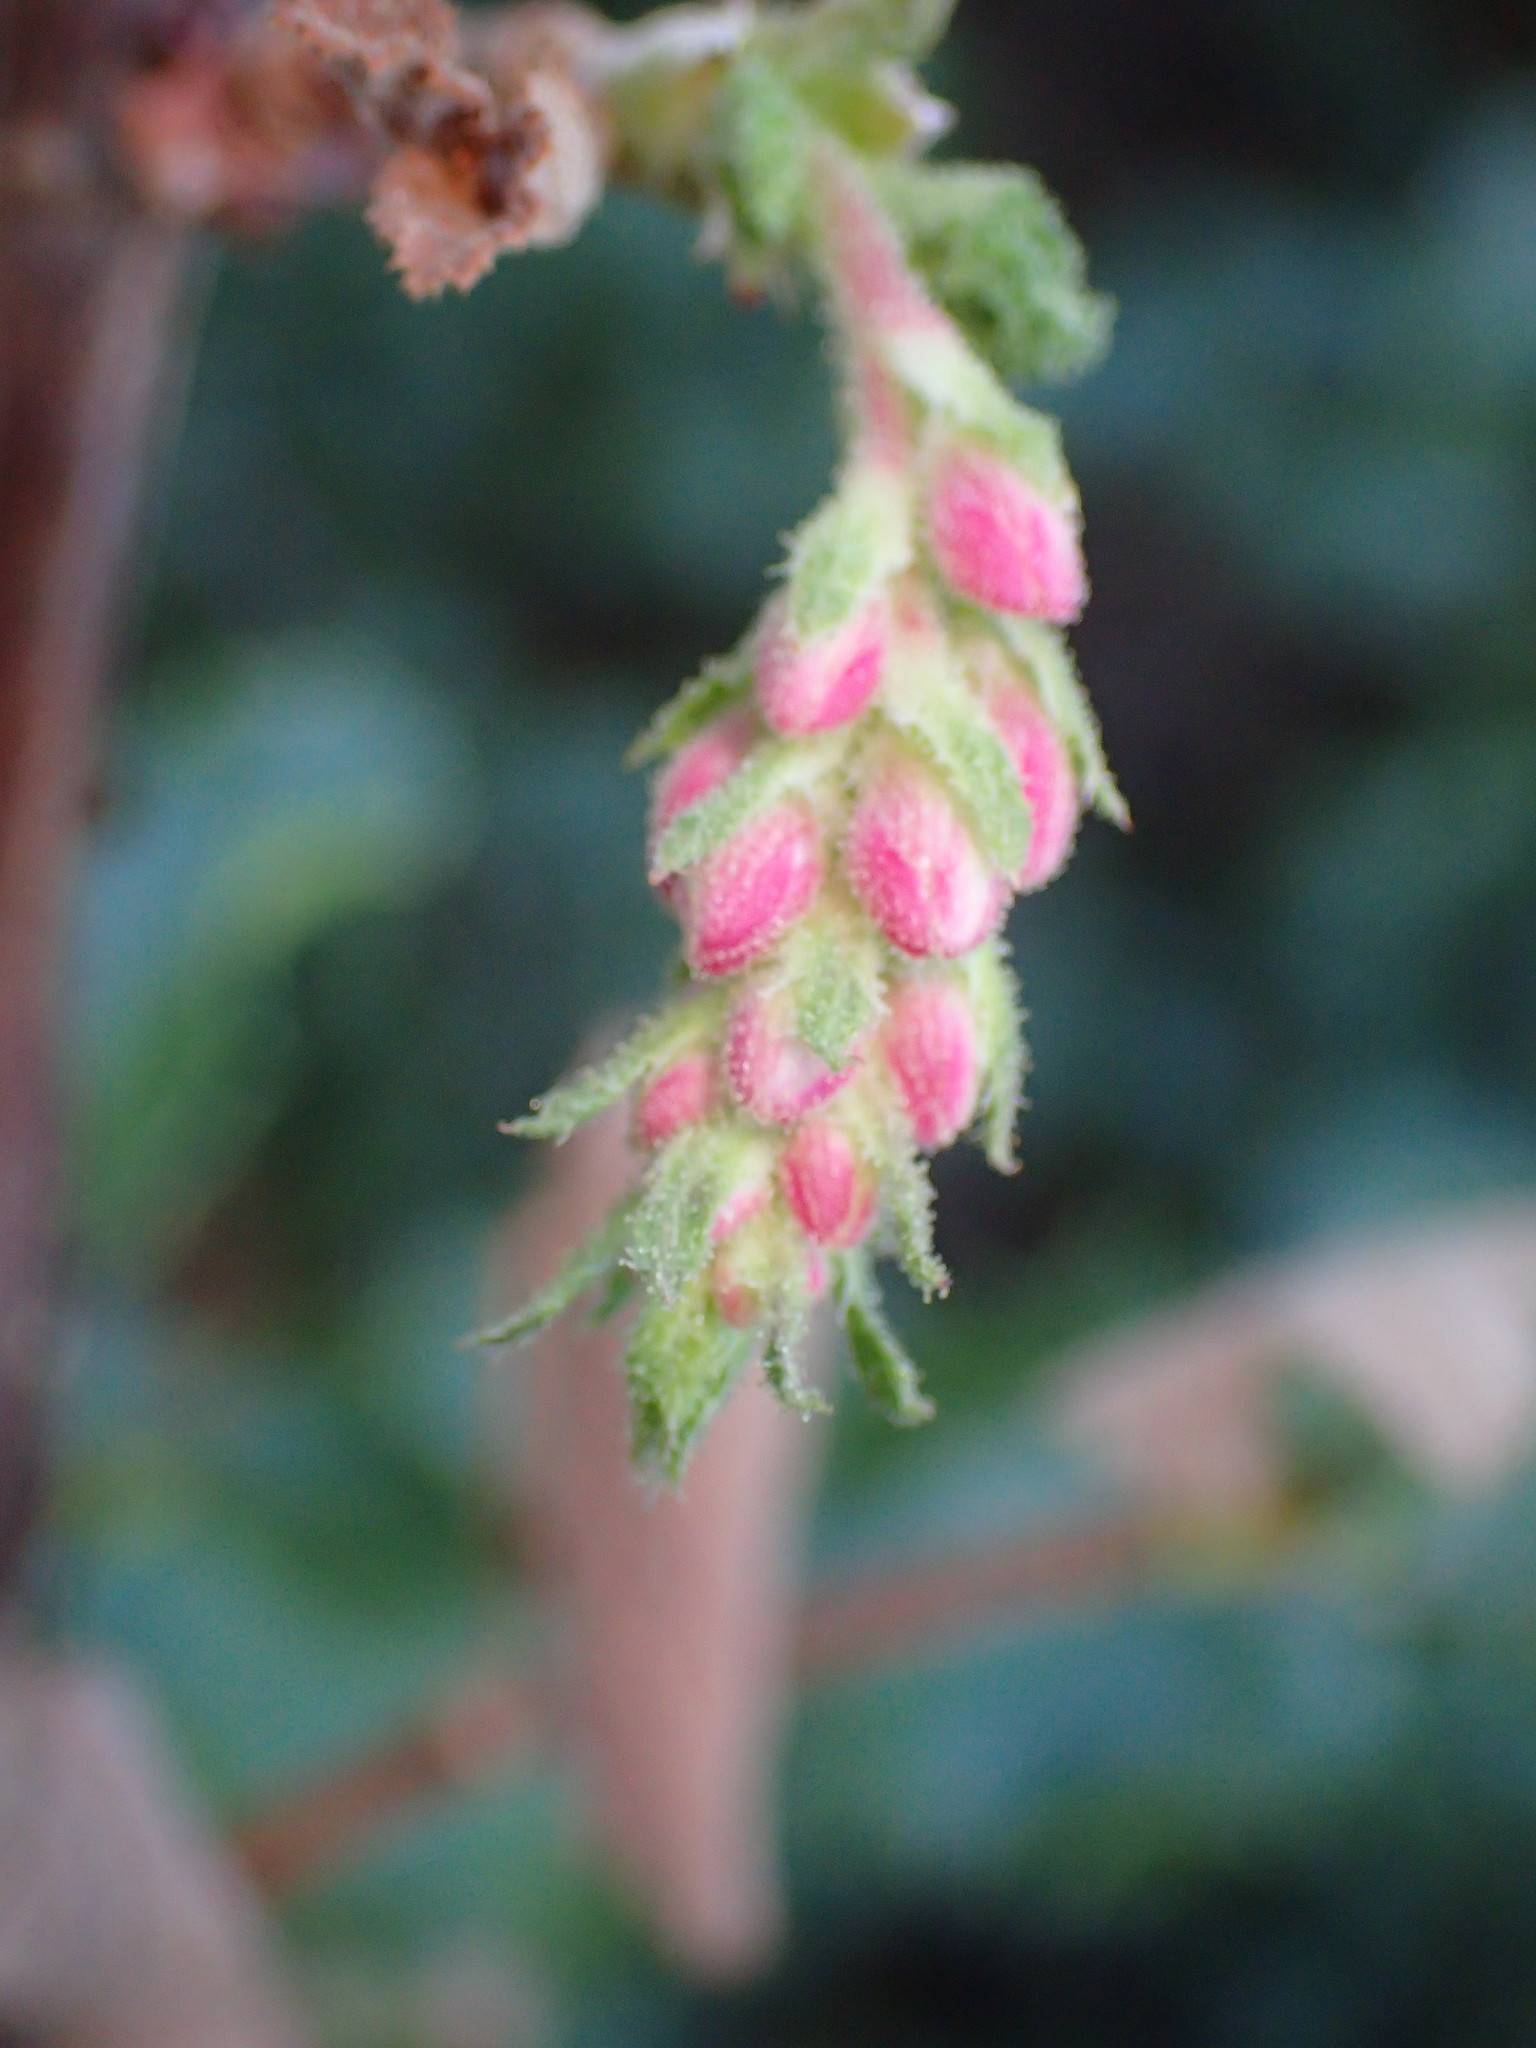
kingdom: Plantae
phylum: Tracheophyta
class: Magnoliopsida
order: Saxifragales
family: Grossulariaceae
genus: Ribes
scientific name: Ribes malvaceum
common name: Chaparral currant
